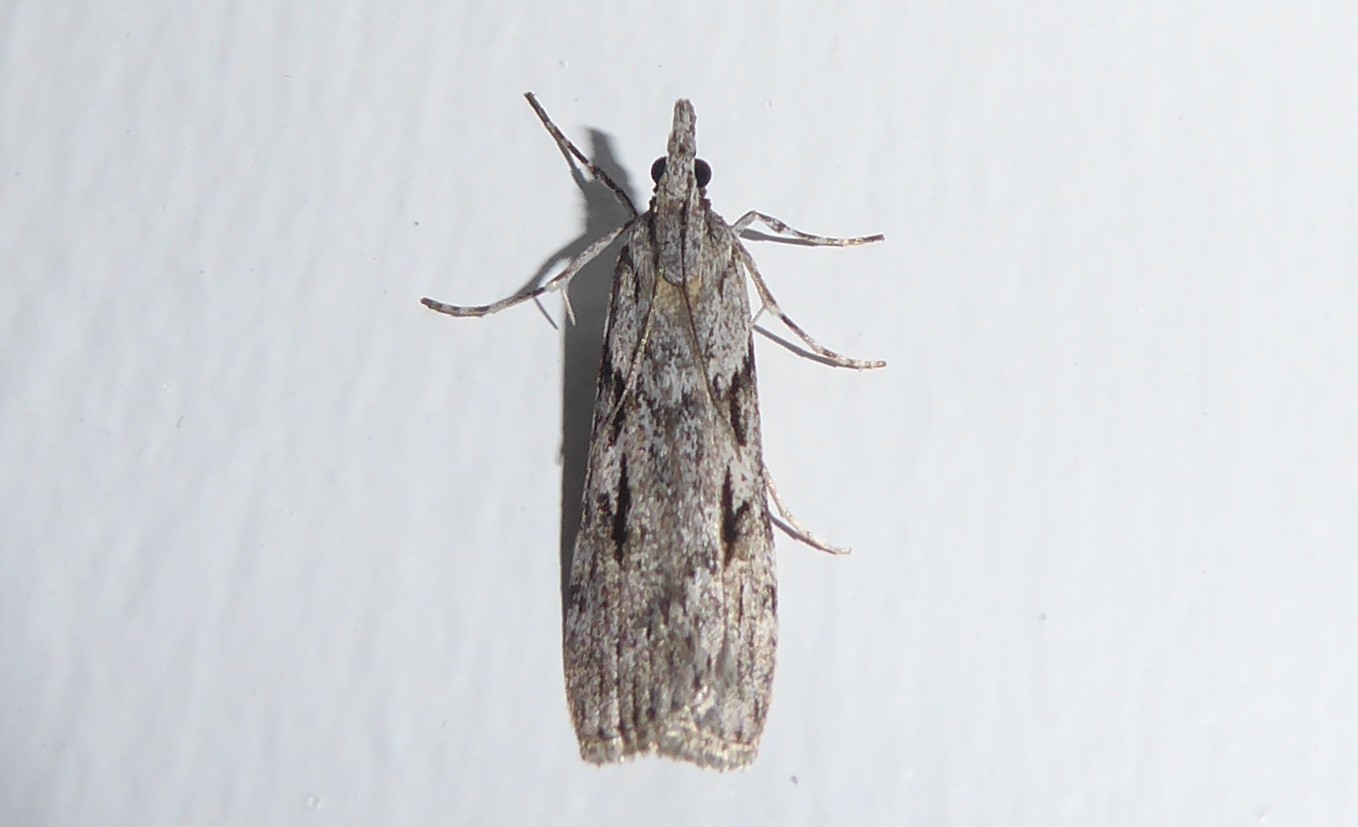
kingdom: Animalia
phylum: Arthropoda
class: Insecta
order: Lepidoptera
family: Crambidae
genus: Scoparia
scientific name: Scoparia halopis
